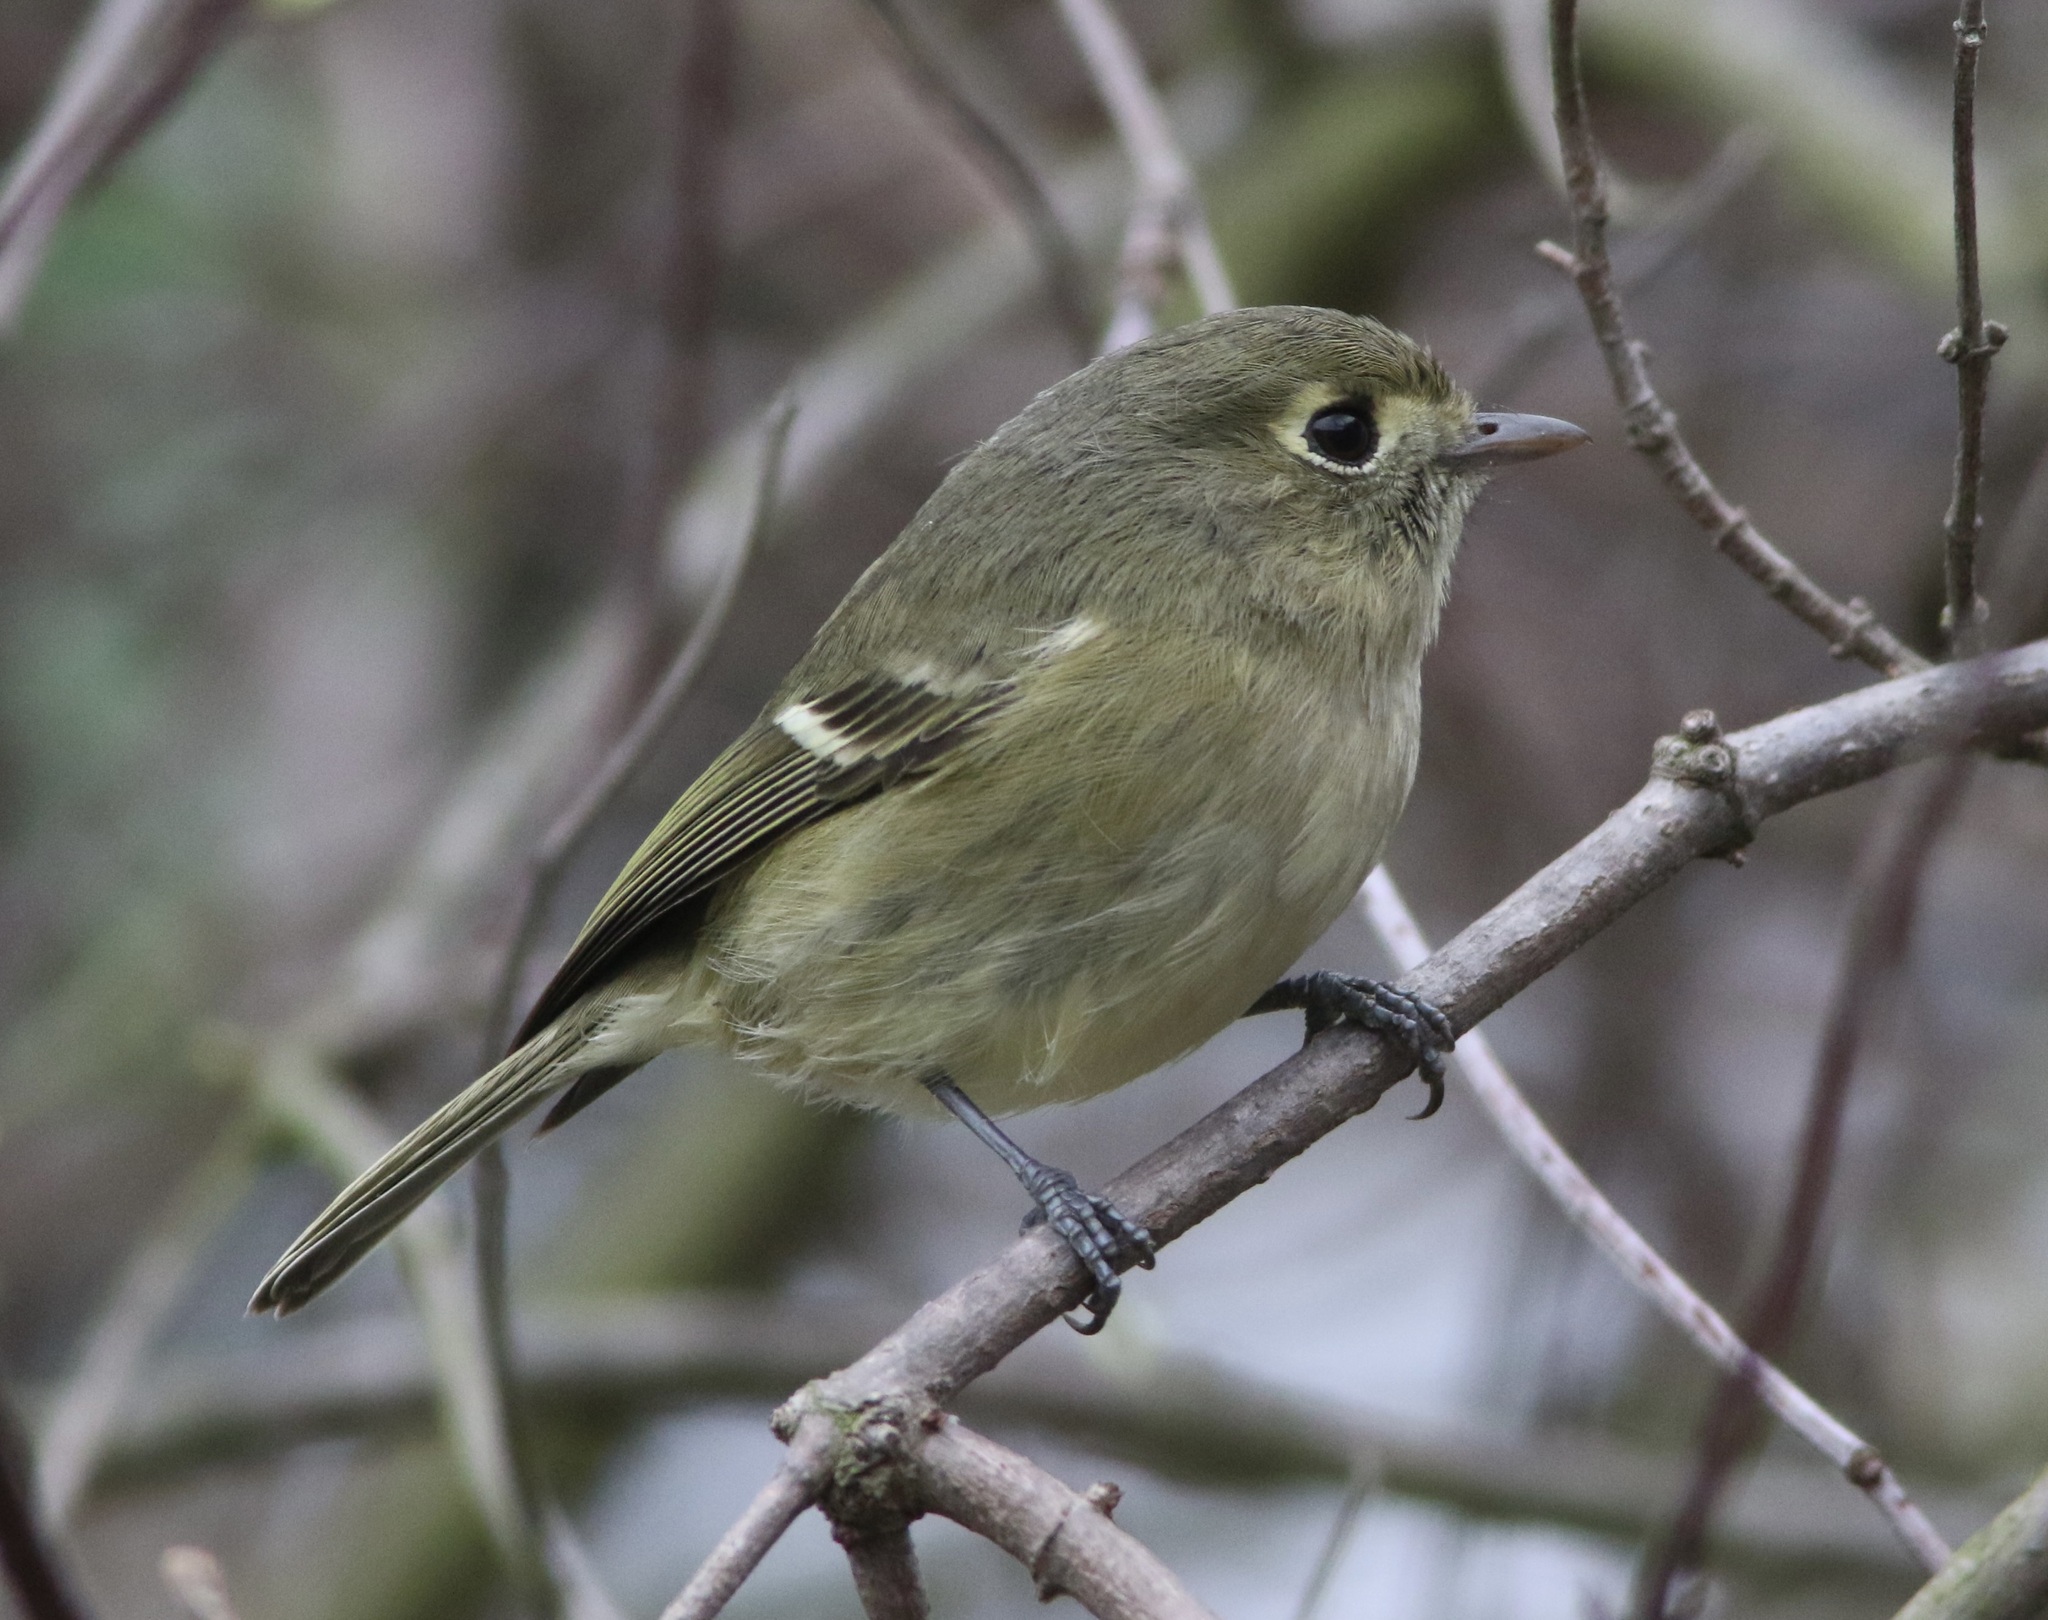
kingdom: Animalia
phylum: Chordata
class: Aves
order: Passeriformes
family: Vireonidae
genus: Vireo
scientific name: Vireo huttoni
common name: Hutton's vireo
